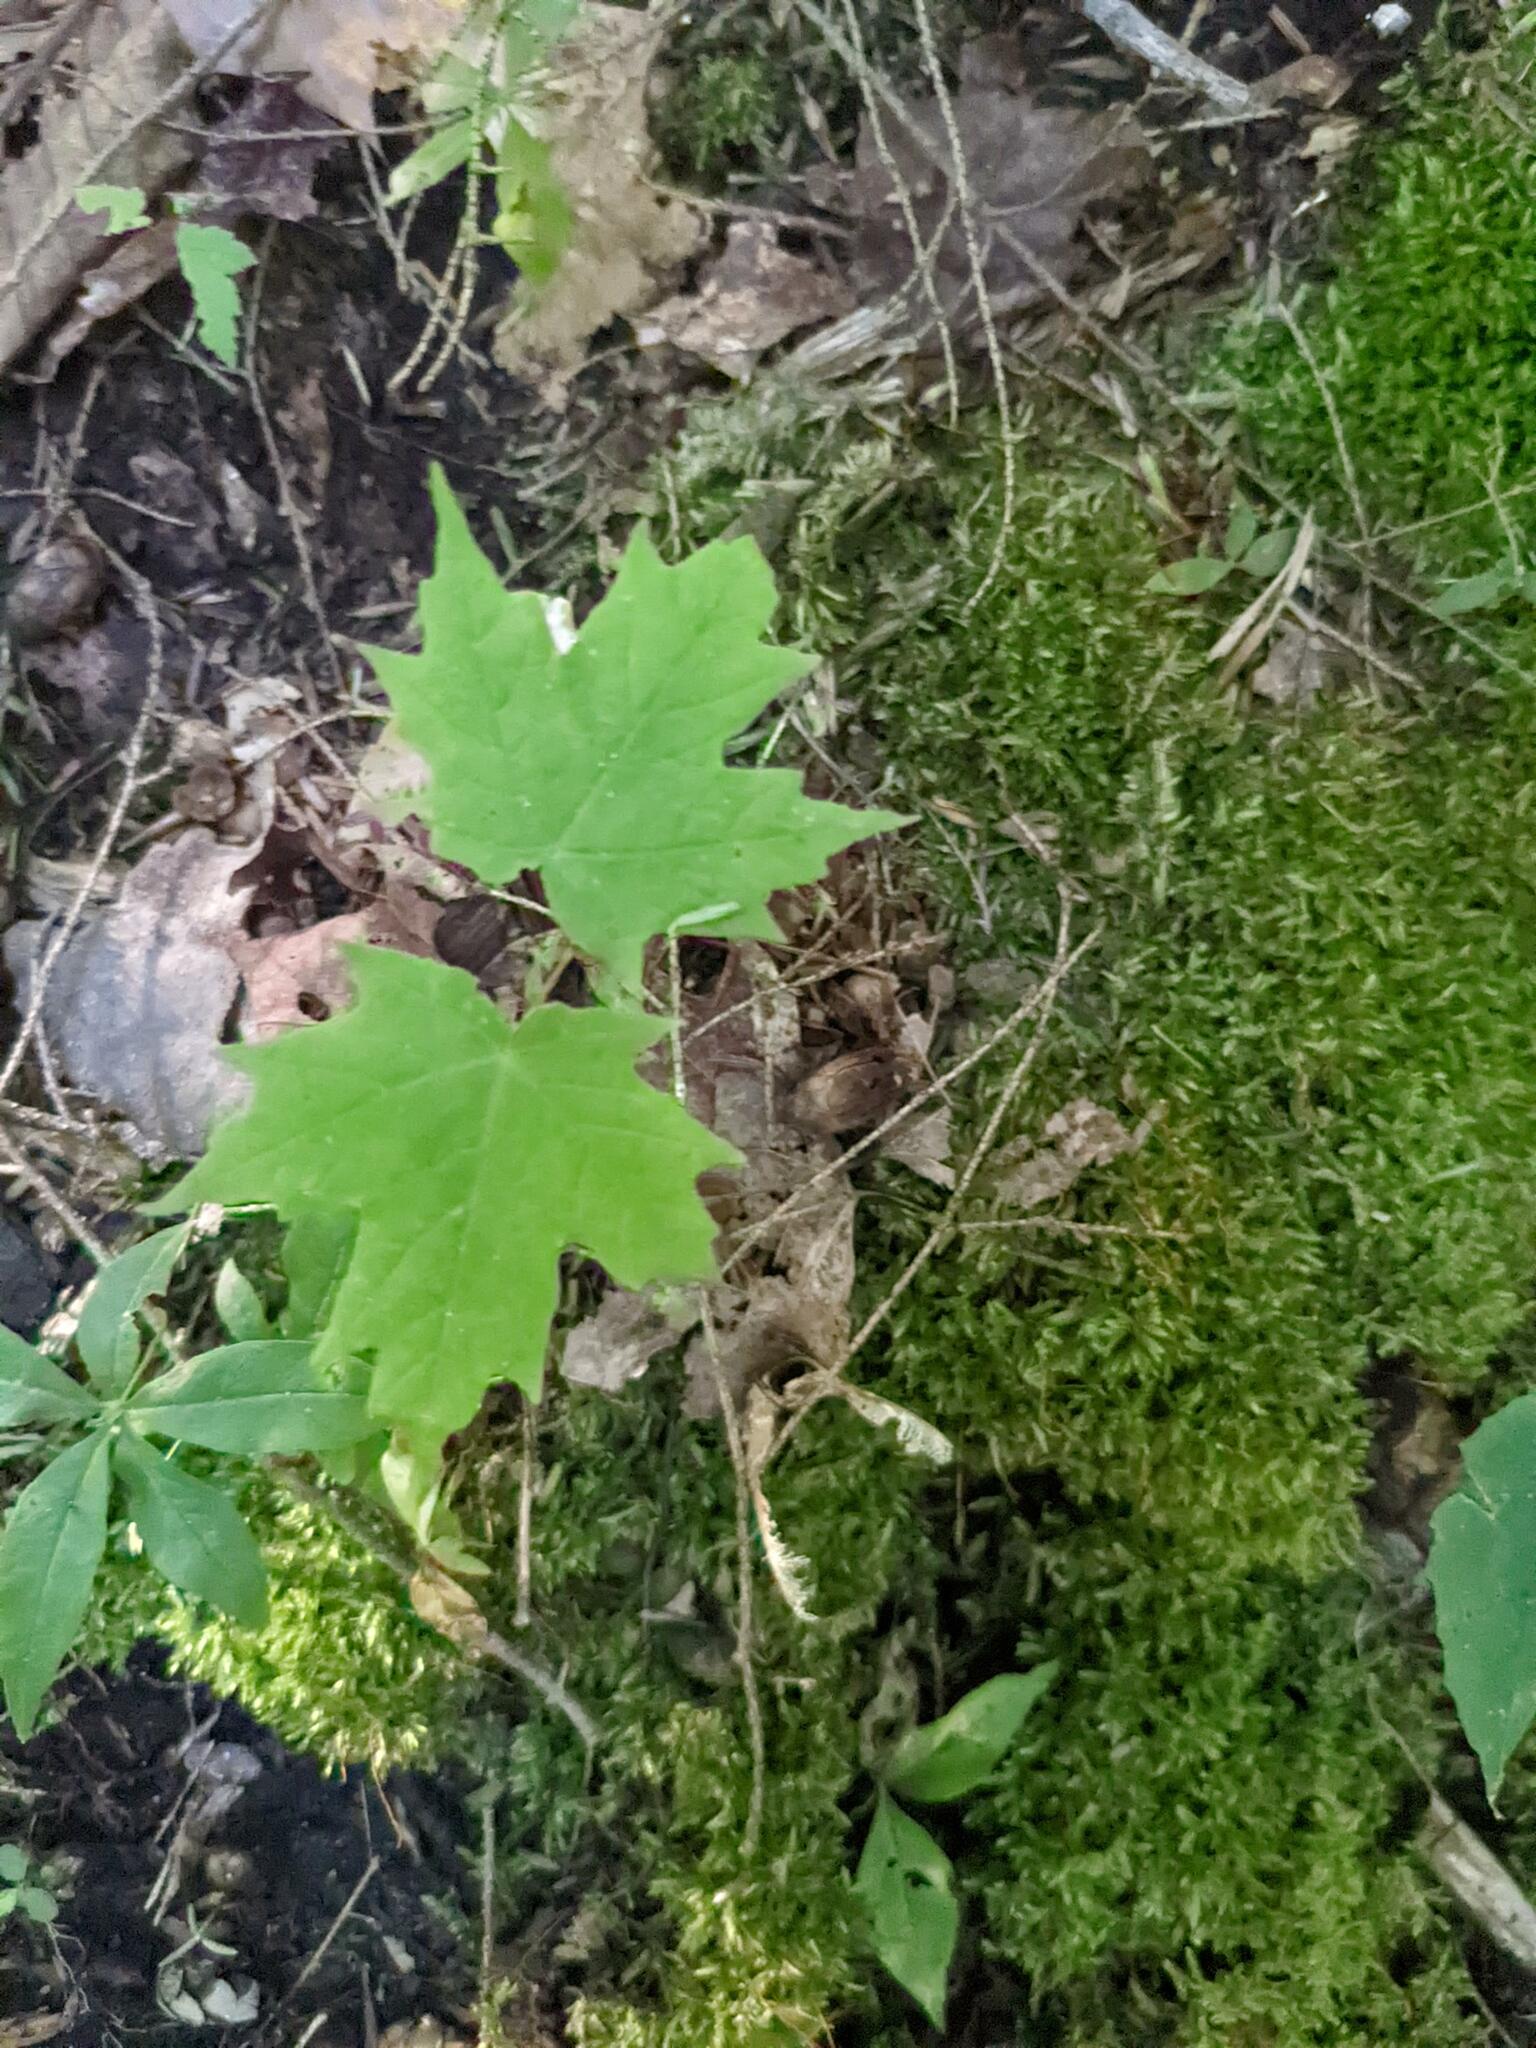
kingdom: Plantae
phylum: Tracheophyta
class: Magnoliopsida
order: Sapindales
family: Sapindaceae
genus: Acer
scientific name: Acer saccharum
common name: Sugar maple
